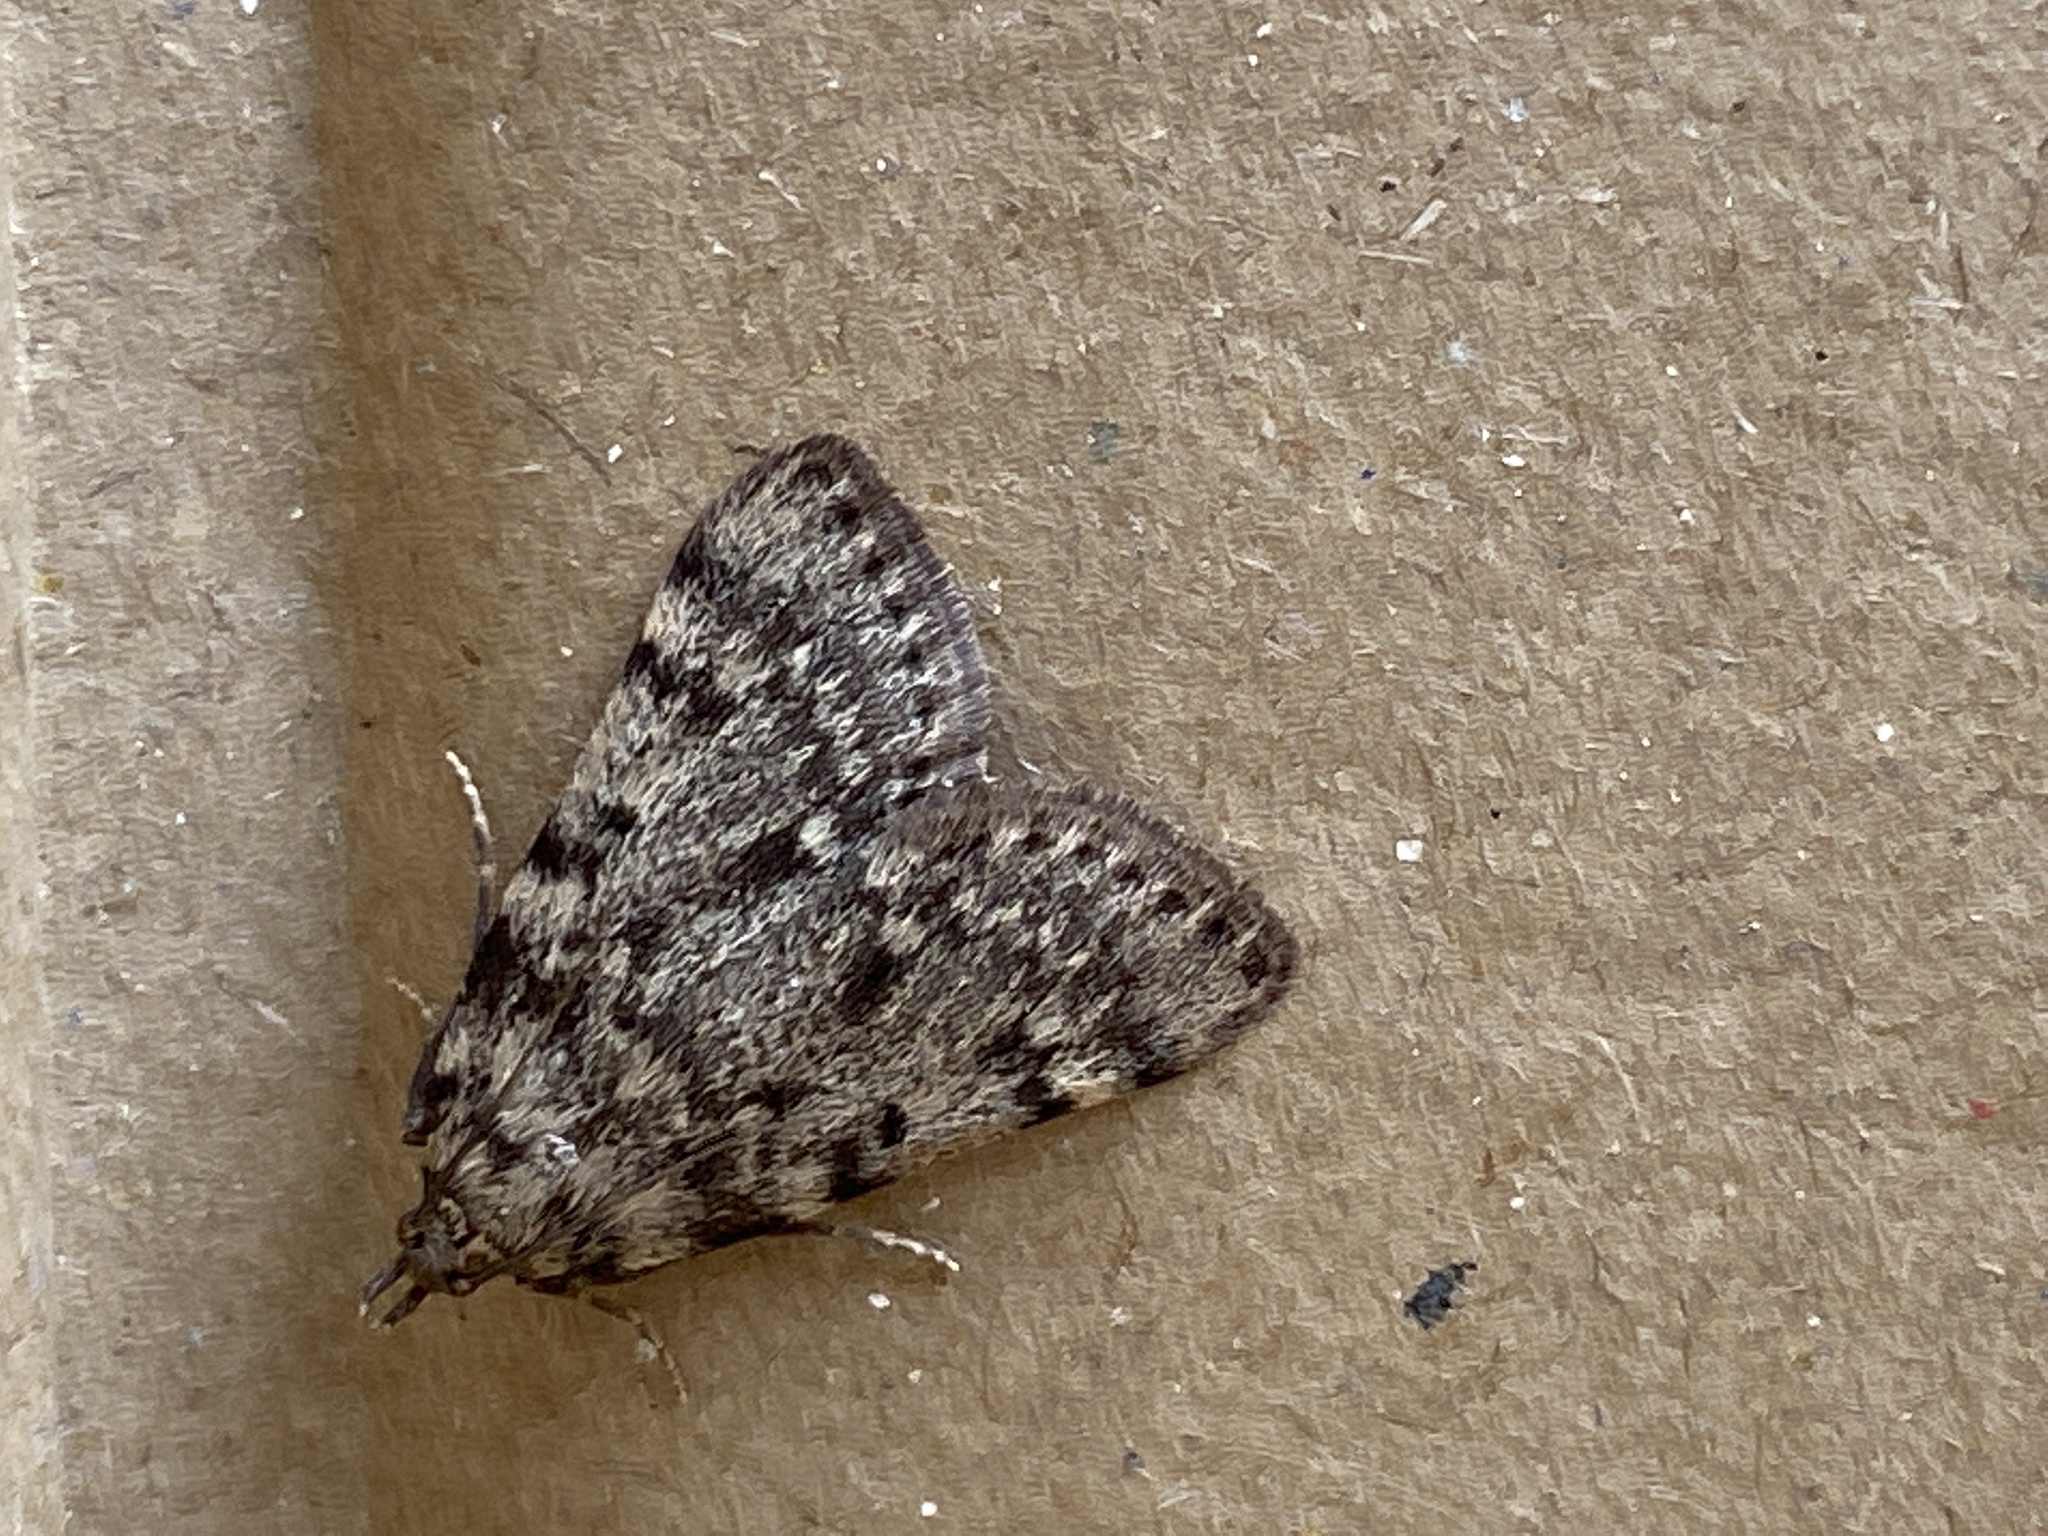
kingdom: Animalia
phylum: Arthropoda
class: Insecta
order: Lepidoptera
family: Pyralidae
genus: Aglossa
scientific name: Aglossa pinguinalis
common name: Large tabby
